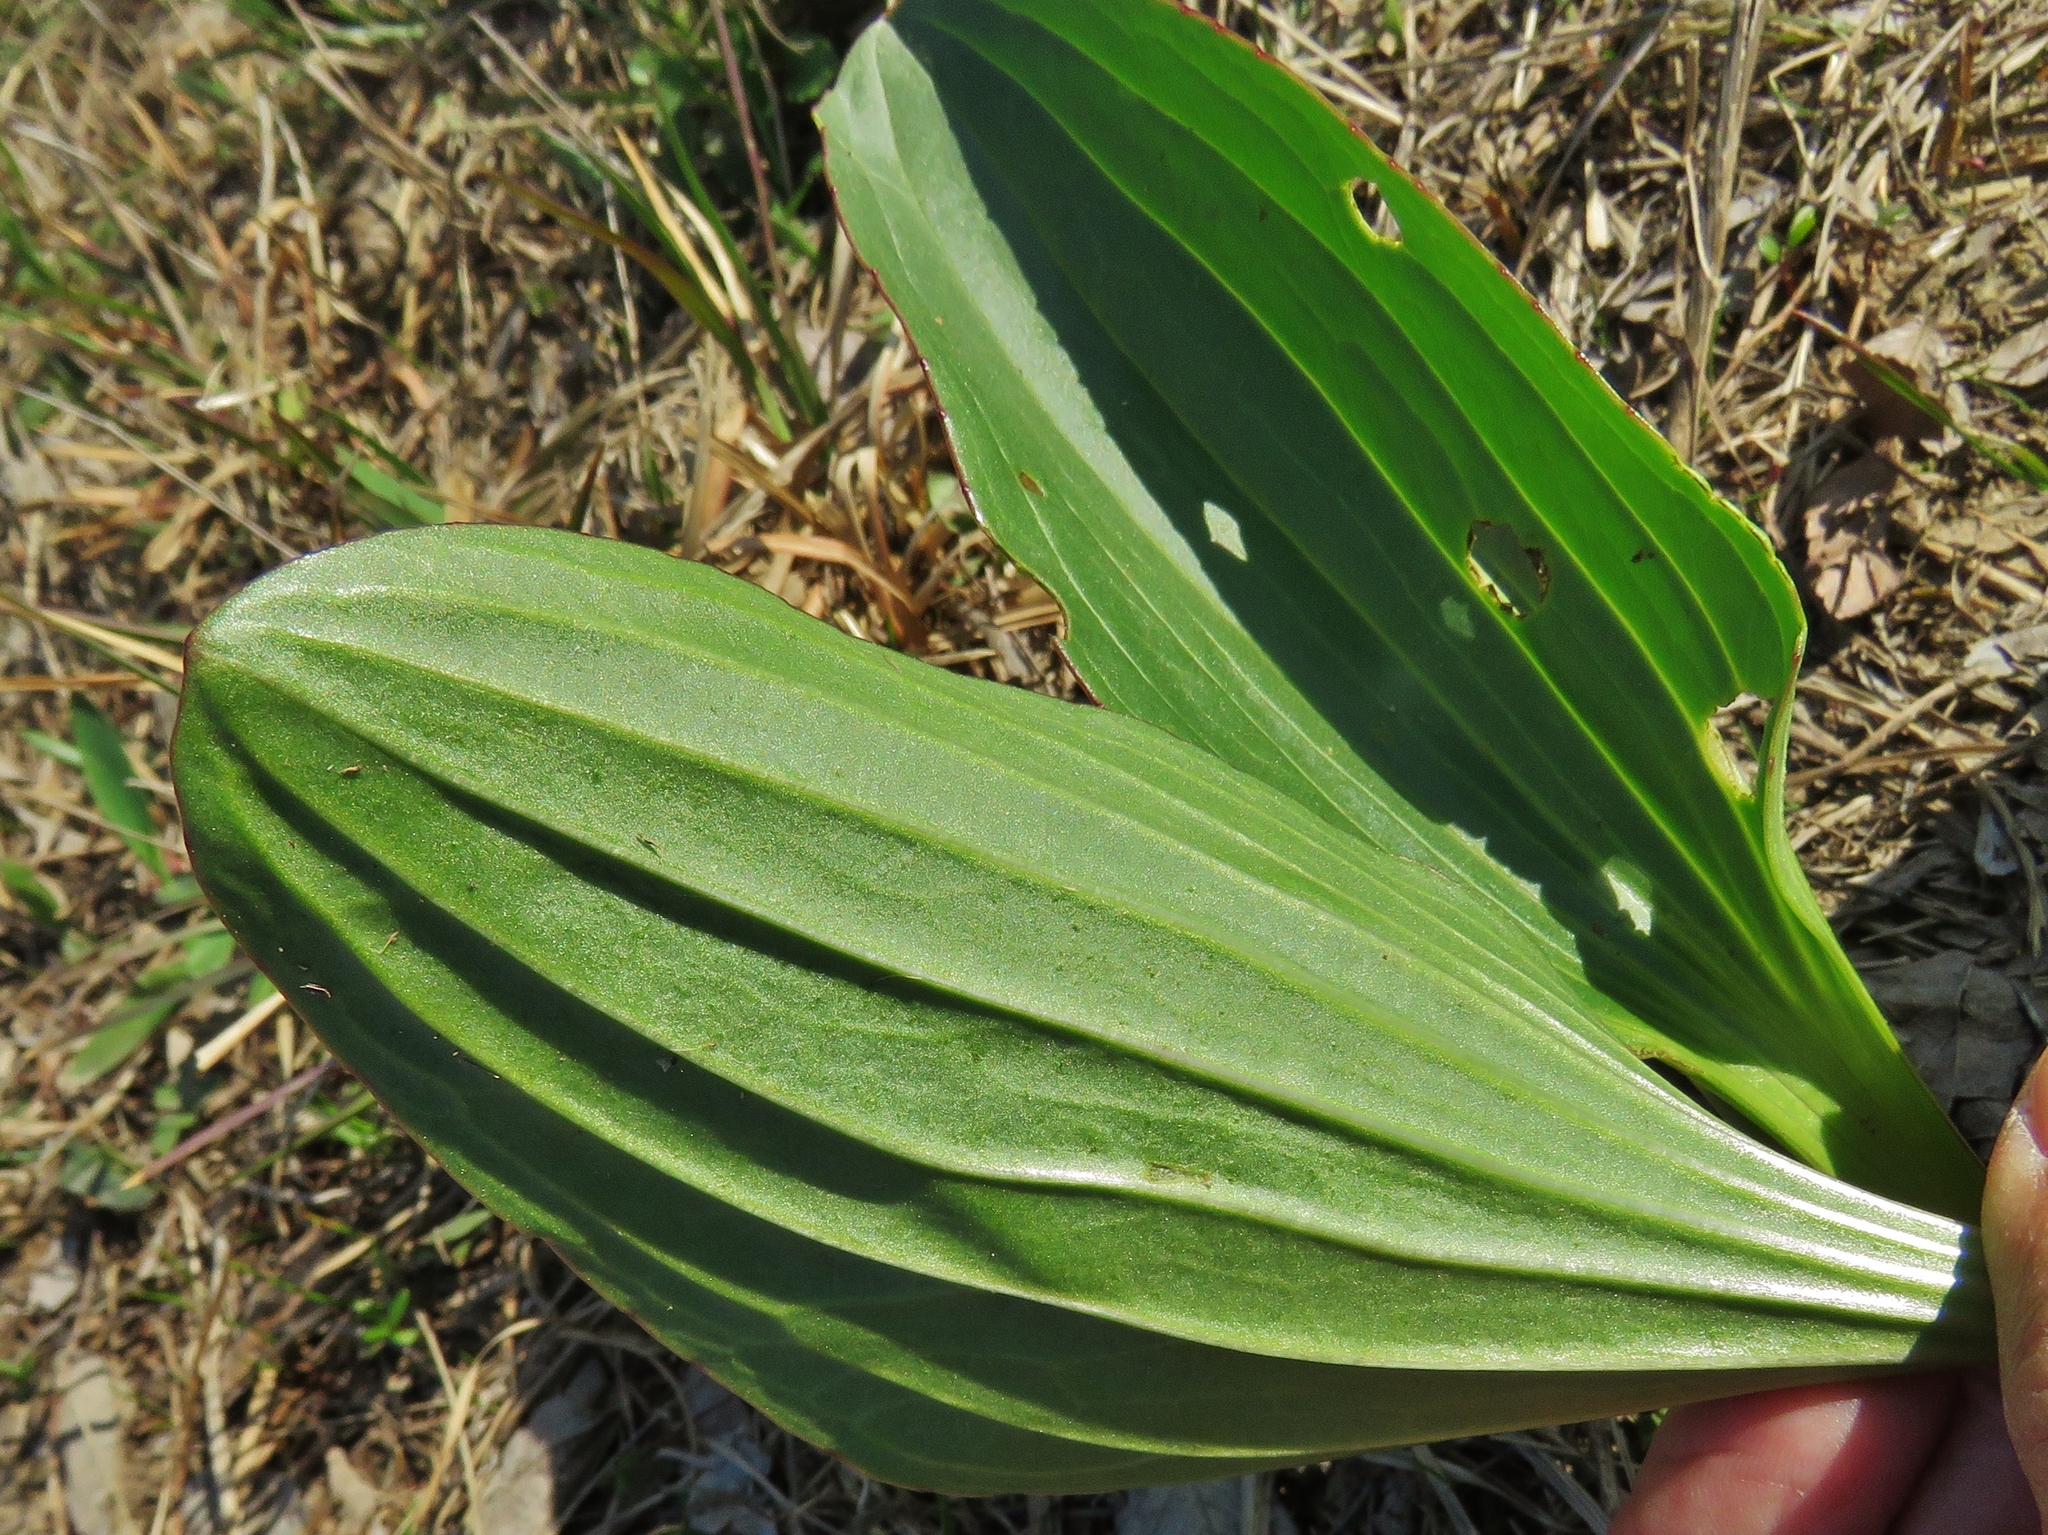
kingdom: Plantae
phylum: Tracheophyta
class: Magnoliopsida
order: Asterales
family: Asteraceae
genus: Arnoglossum
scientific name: Arnoglossum plantagineum
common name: Groove-stemmed indian-plantain
